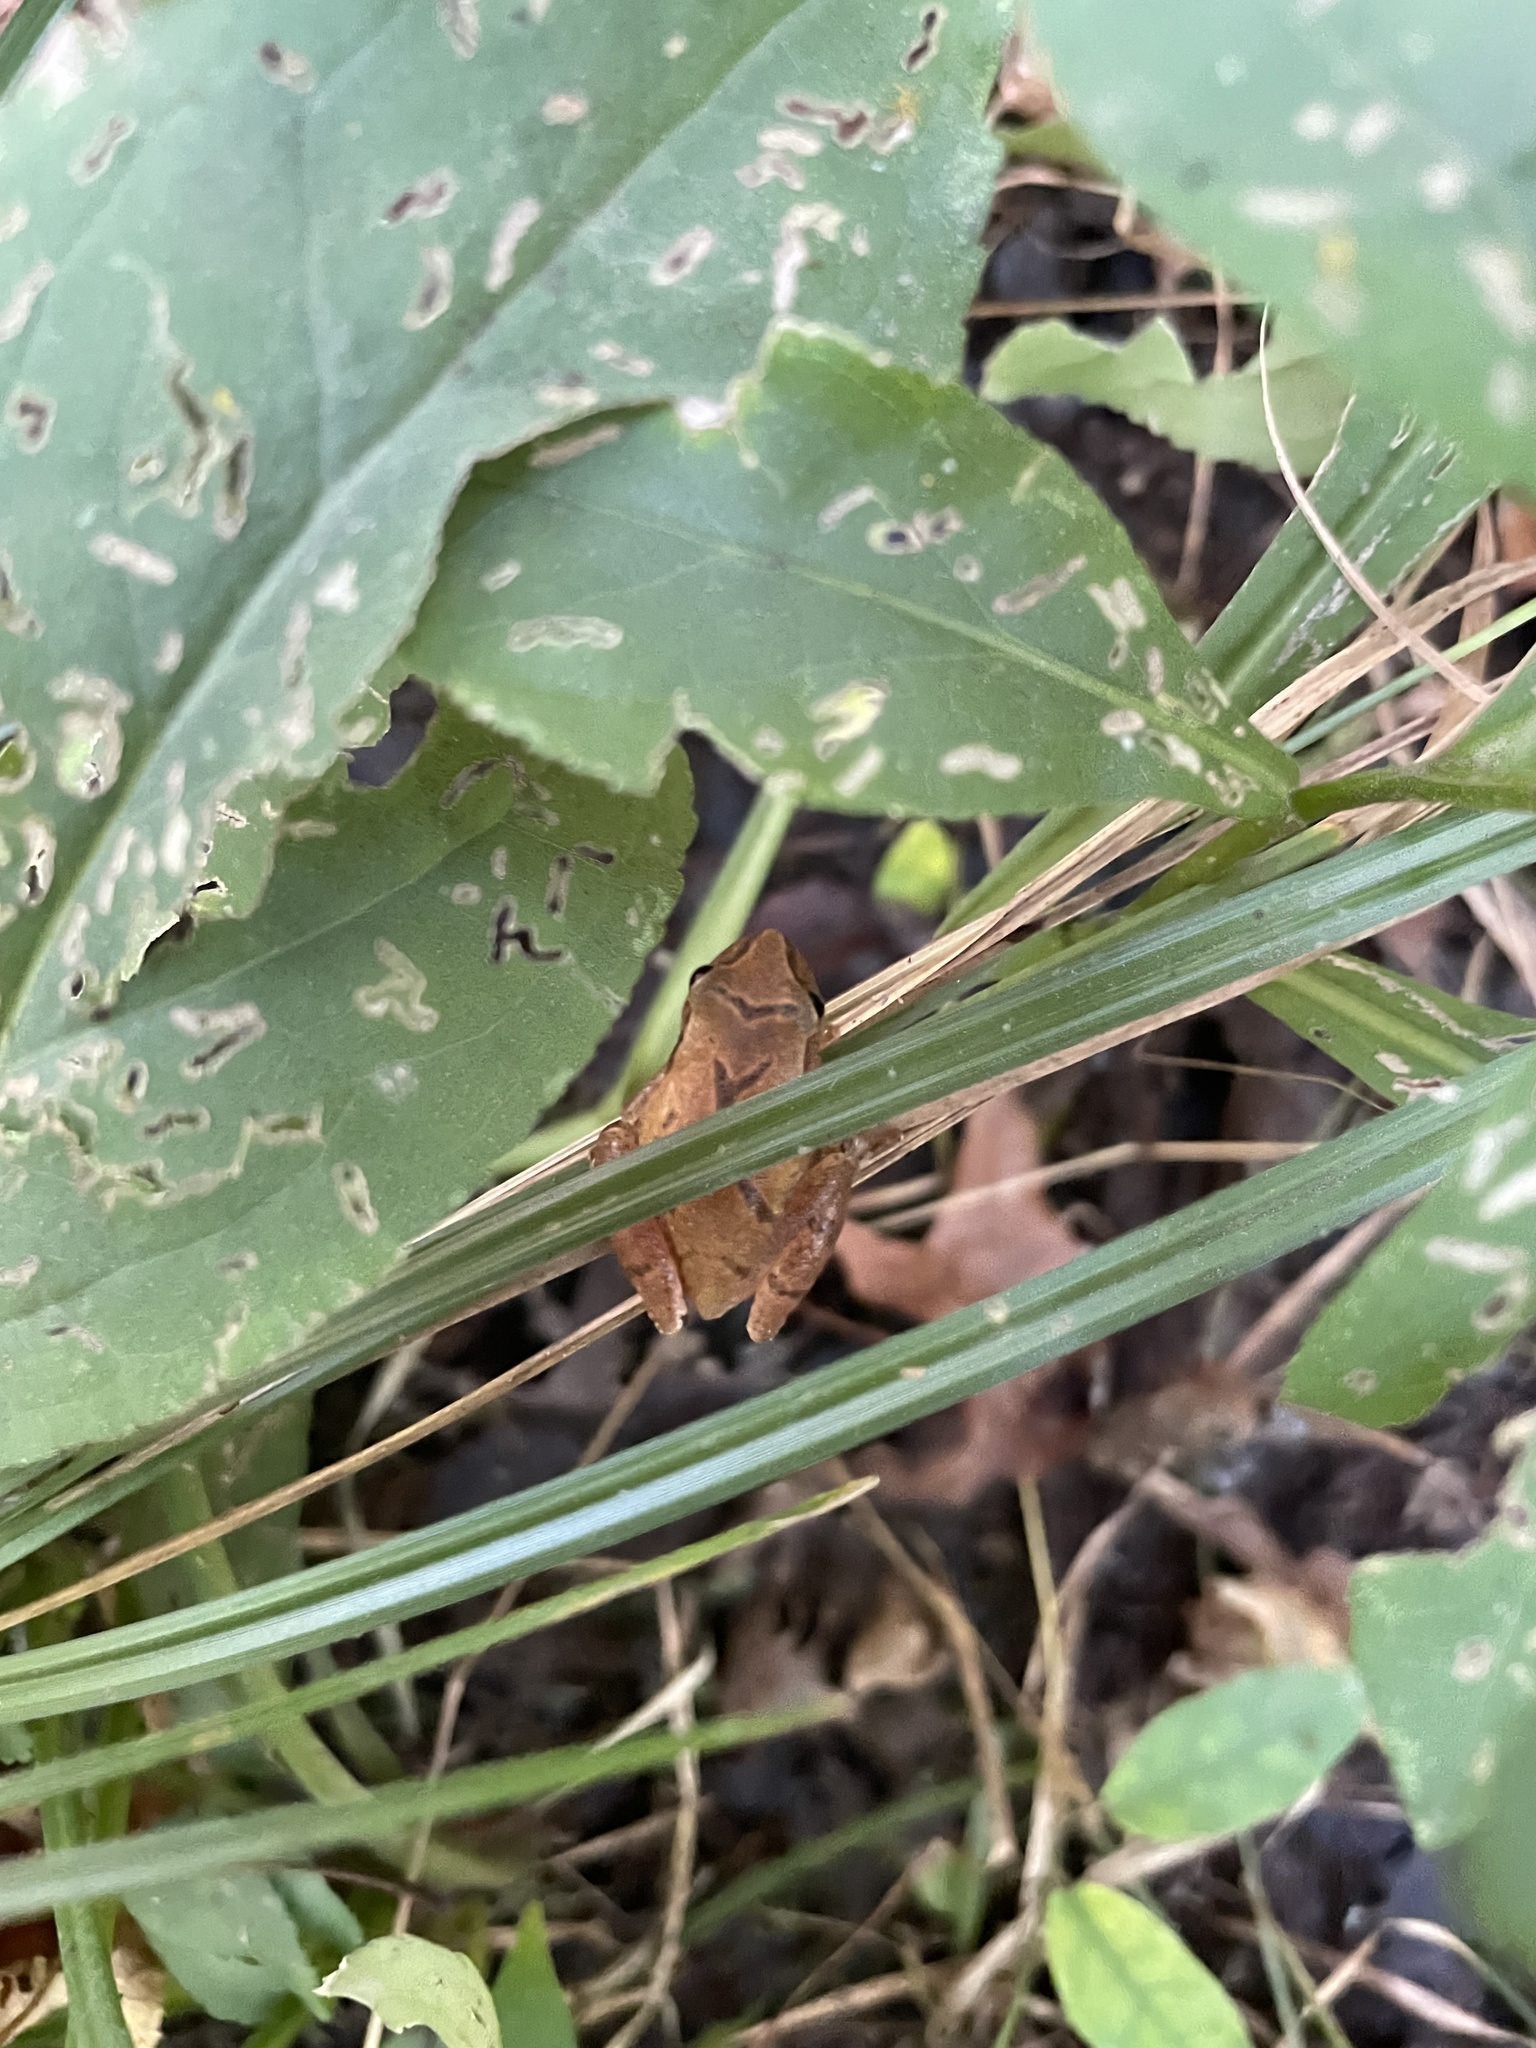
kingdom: Animalia
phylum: Chordata
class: Amphibia
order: Anura
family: Hylidae
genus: Pseudacris
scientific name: Pseudacris crucifer
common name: Spring peeper
